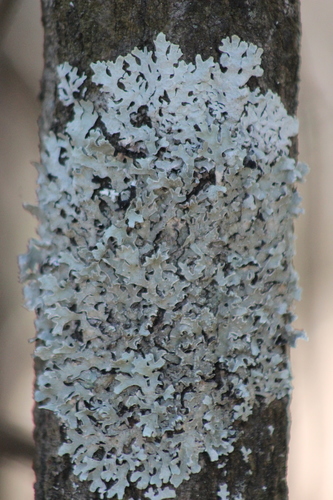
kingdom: Fungi
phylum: Ascomycota
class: Lecanoromycetes
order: Lecanorales
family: Parmeliaceae
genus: Parmelia
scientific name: Parmelia sulcata
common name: Netted shield lichen
